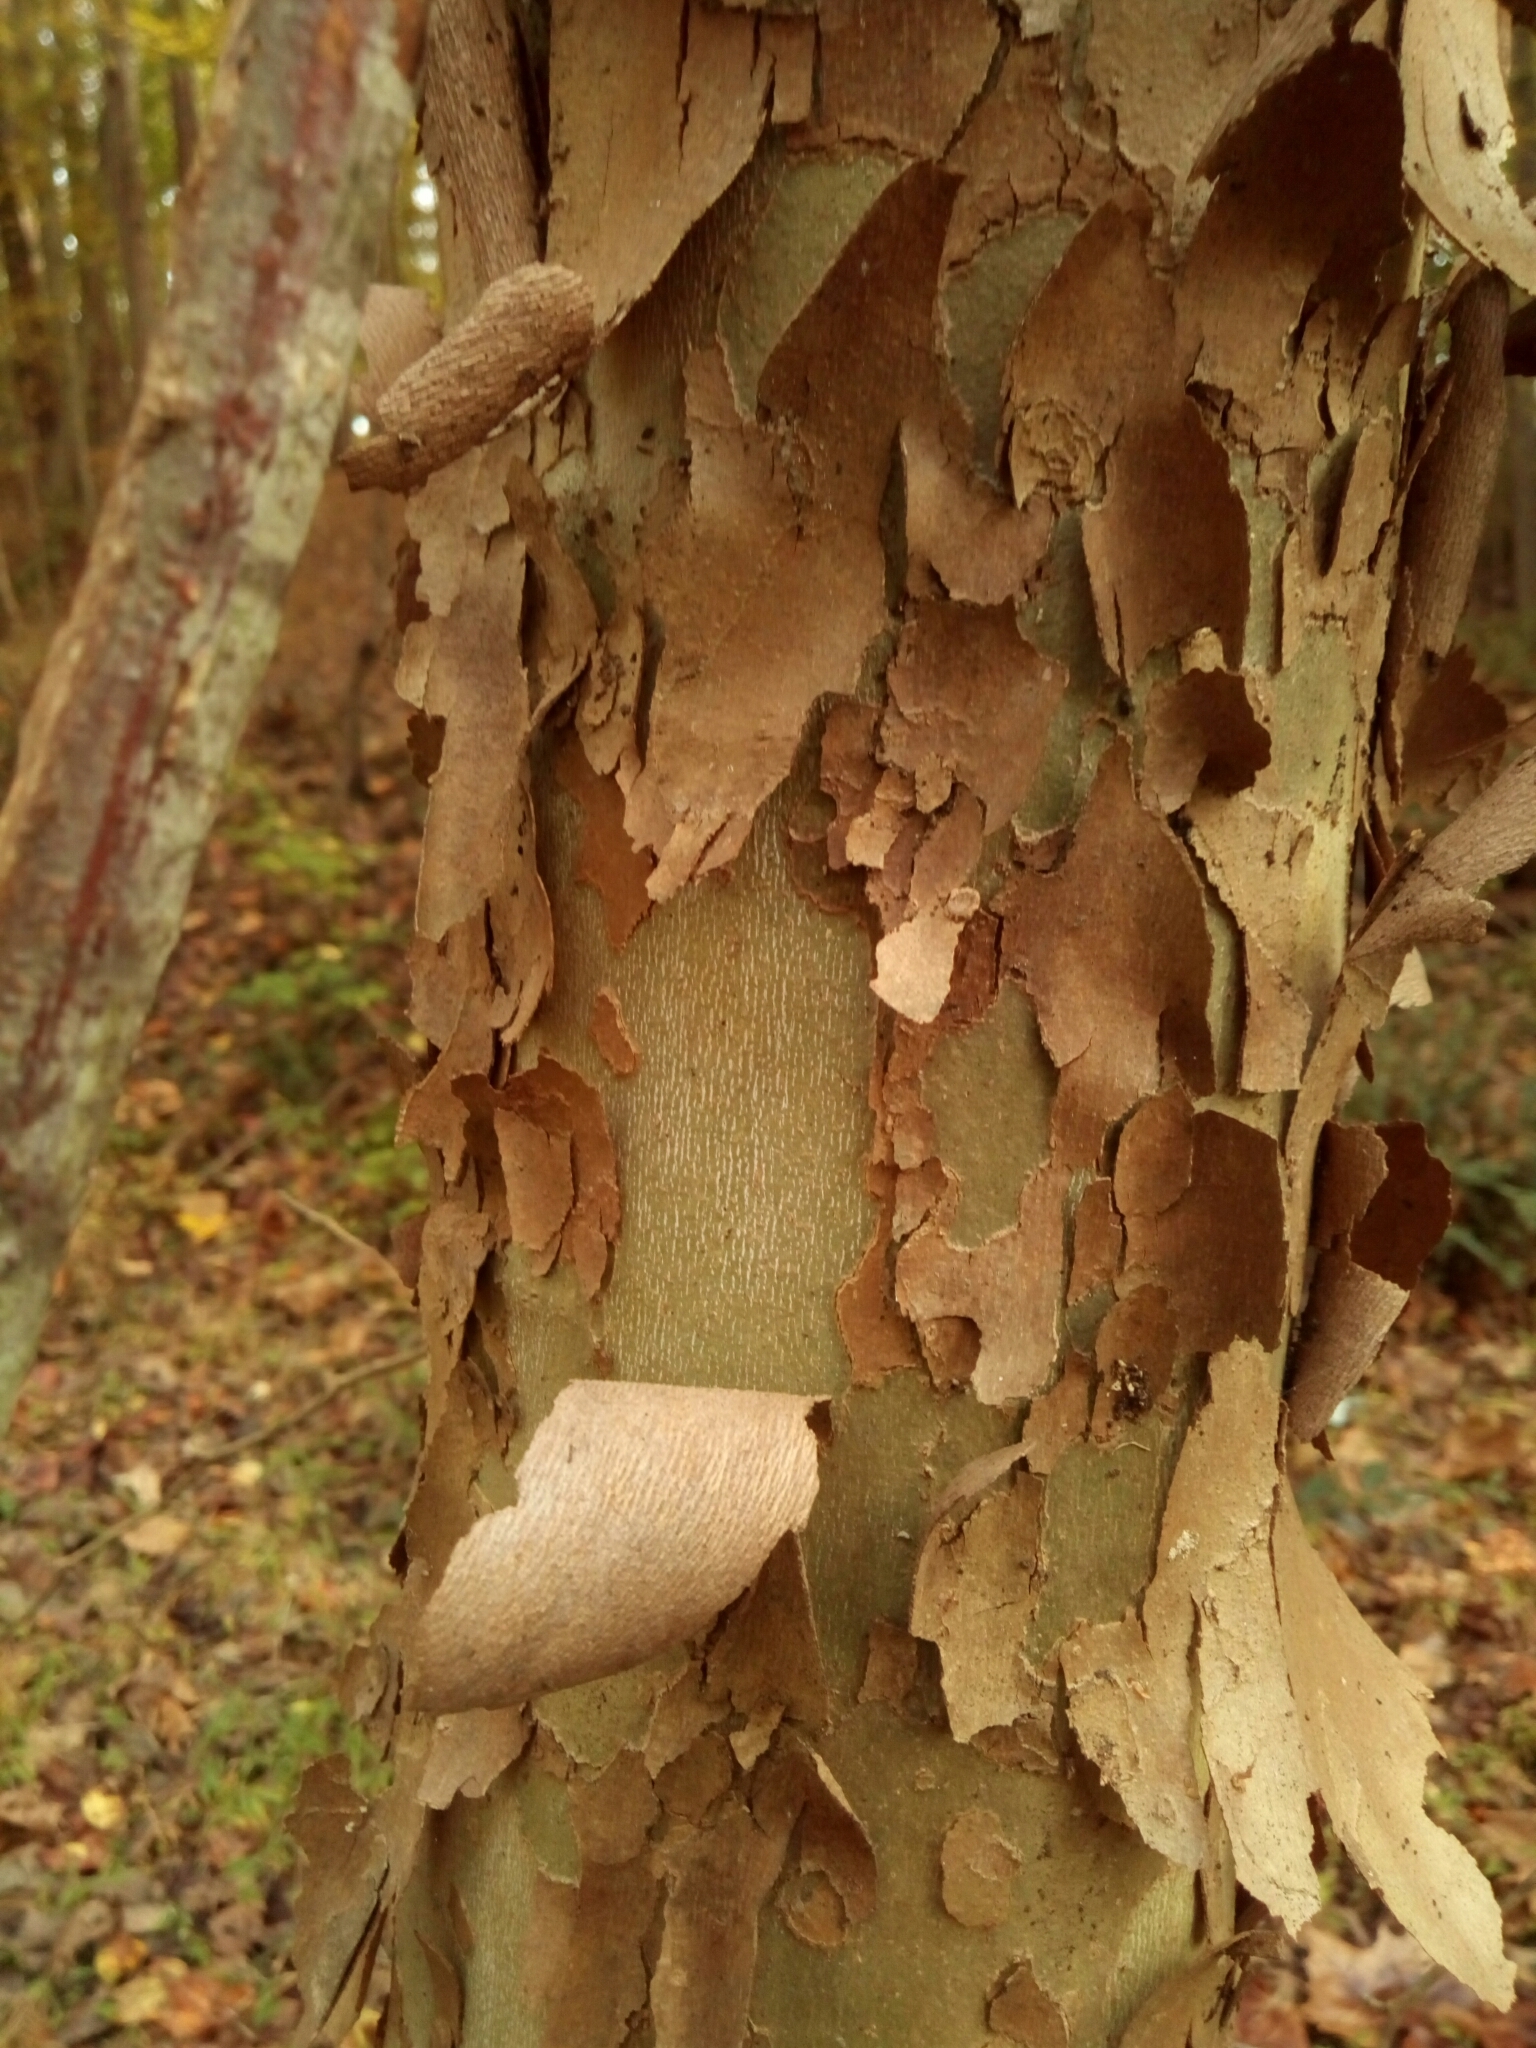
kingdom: Plantae
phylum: Tracheophyta
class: Magnoliopsida
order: Proteales
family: Platanaceae
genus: Platanus
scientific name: Platanus occidentalis
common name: American sycamore
